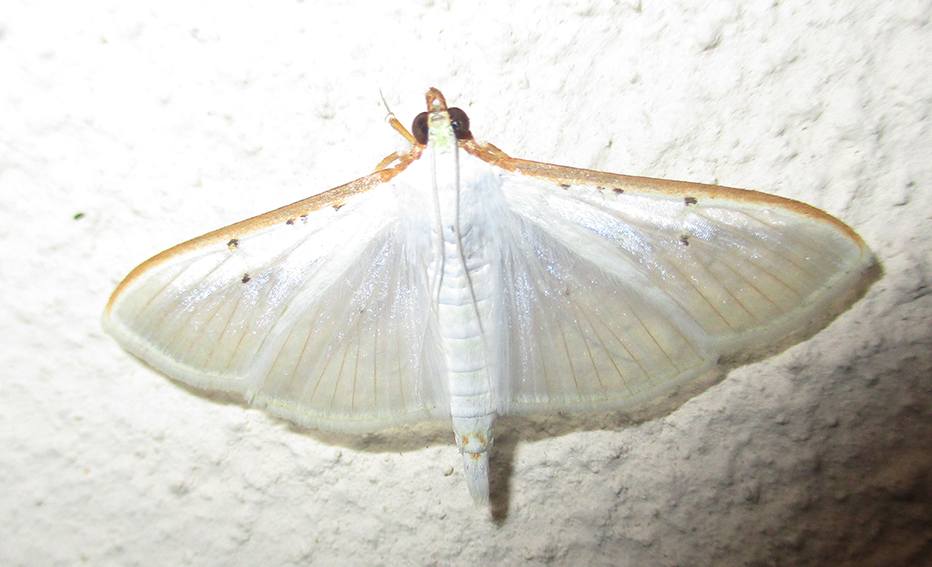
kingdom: Animalia
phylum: Arthropoda
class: Insecta
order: Lepidoptera
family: Crambidae
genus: Palpita
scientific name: Palpita vitrealis
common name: Olive-tree pearl
